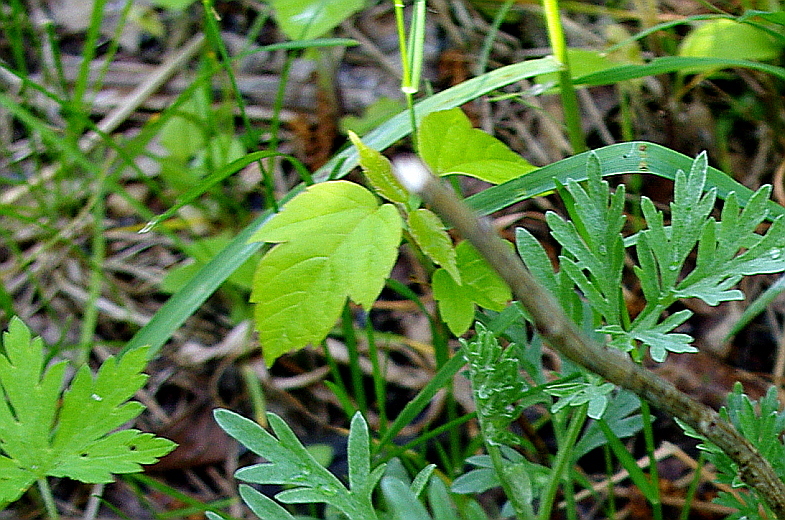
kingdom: Plantae
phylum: Tracheophyta
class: Magnoliopsida
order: Sapindales
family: Sapindaceae
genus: Acer
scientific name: Acer negundo
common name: Ashleaf maple
